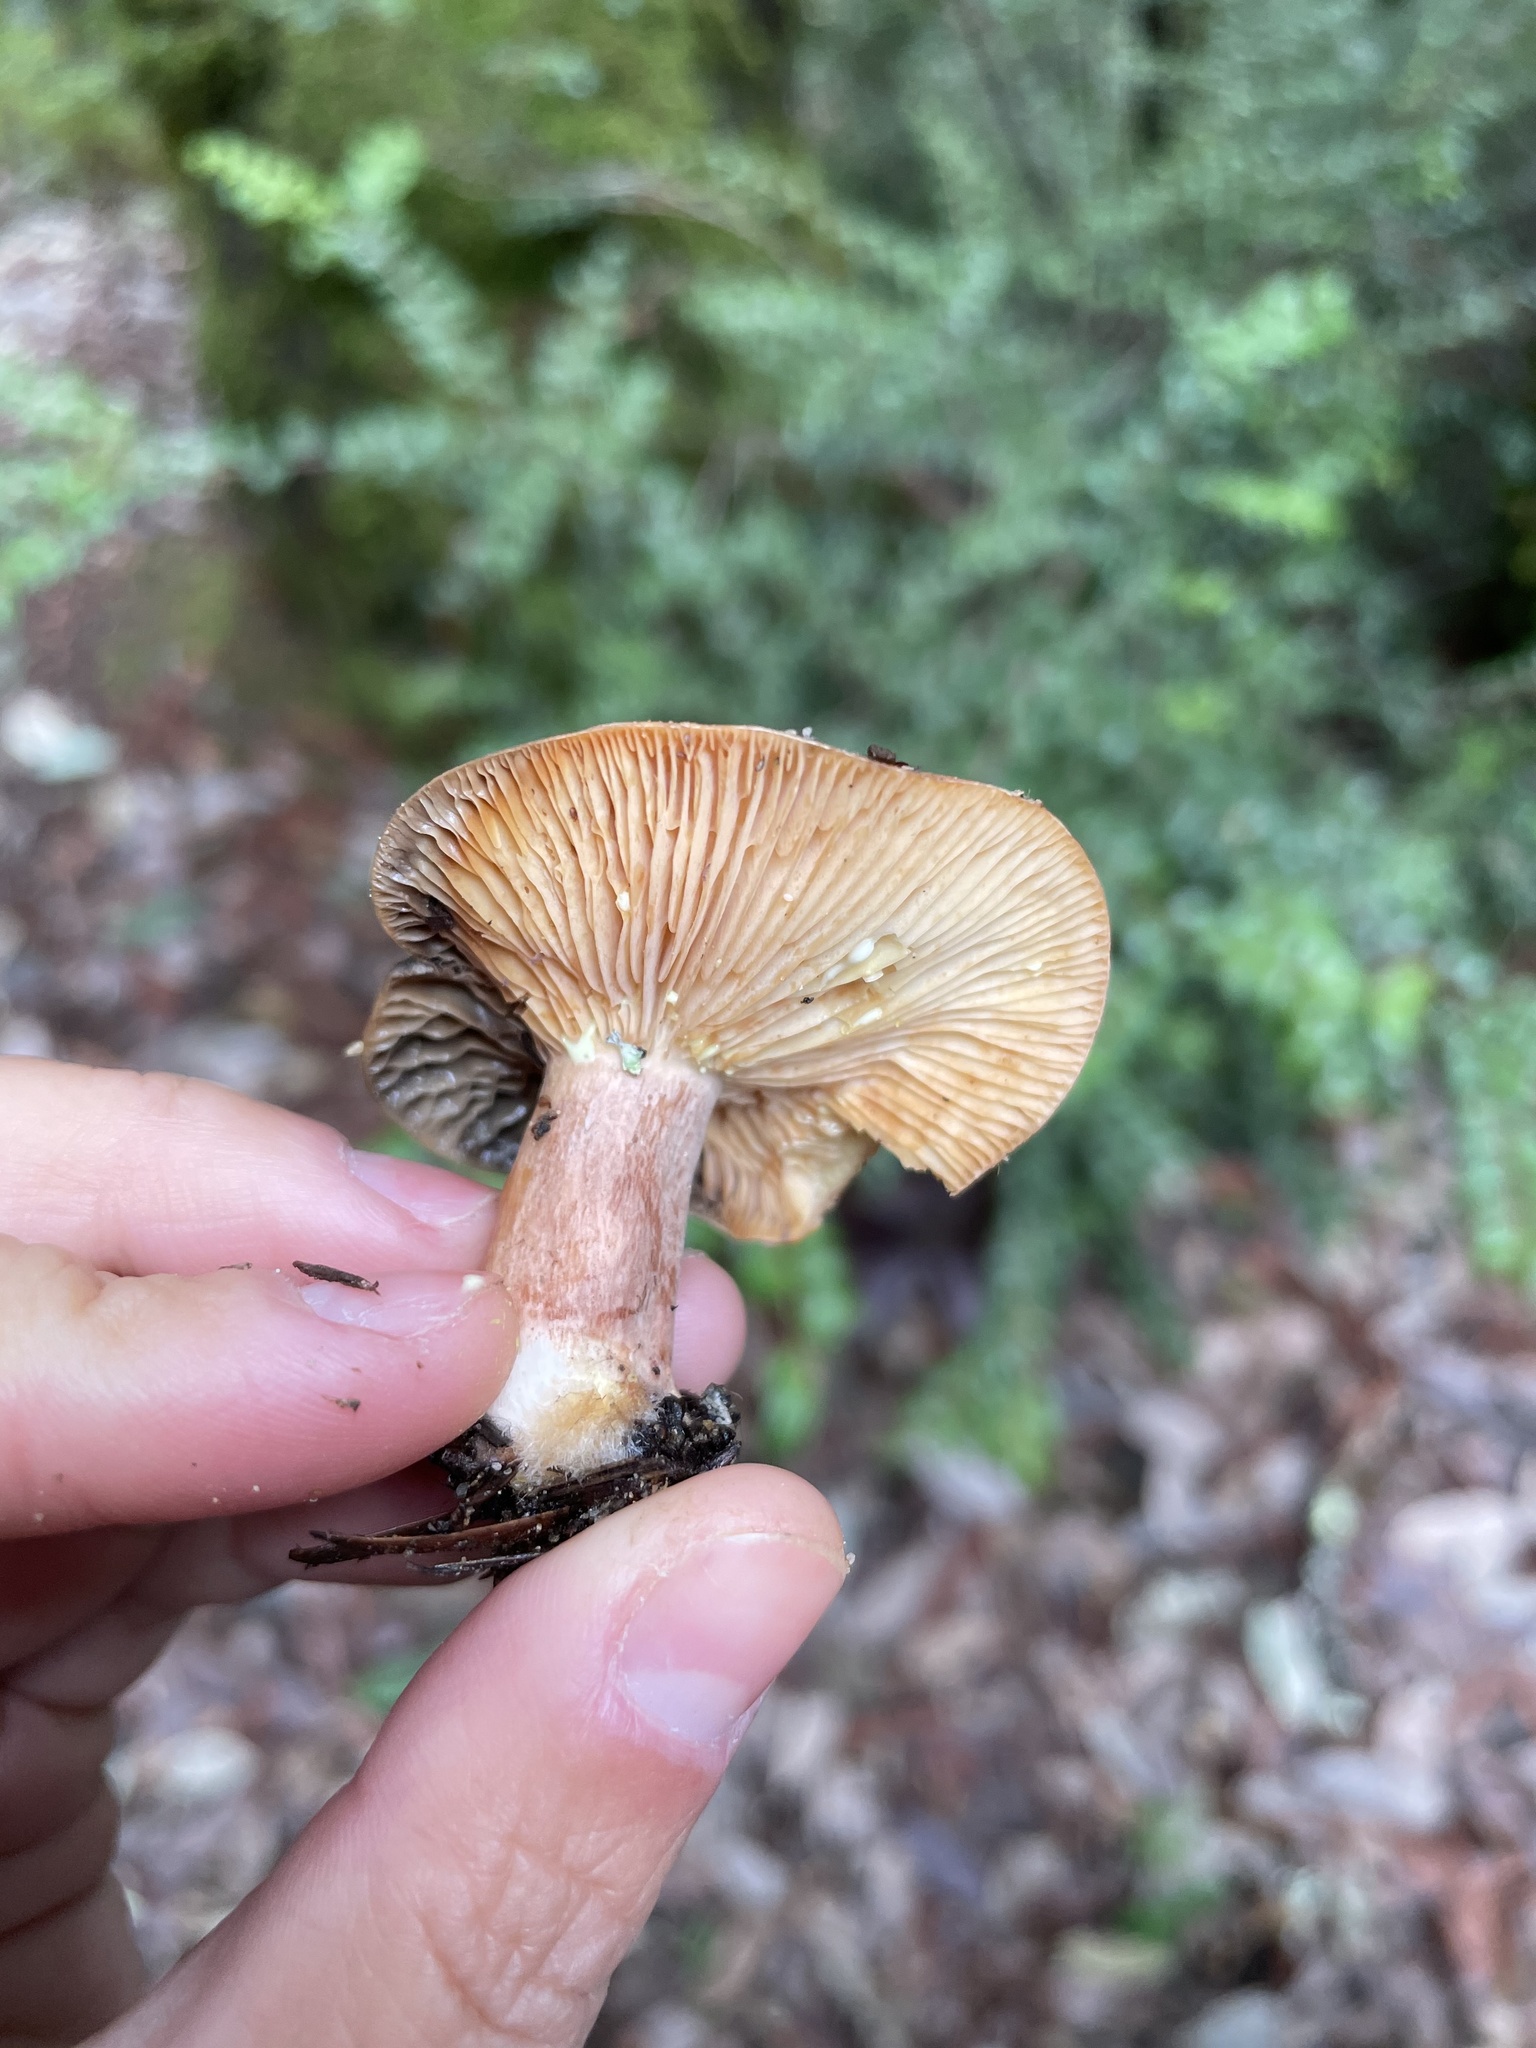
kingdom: Fungi
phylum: Basidiomycota
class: Agaricomycetes
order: Russulales
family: Russulaceae
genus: Lactarius
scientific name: Lactarius xanthogalactus
